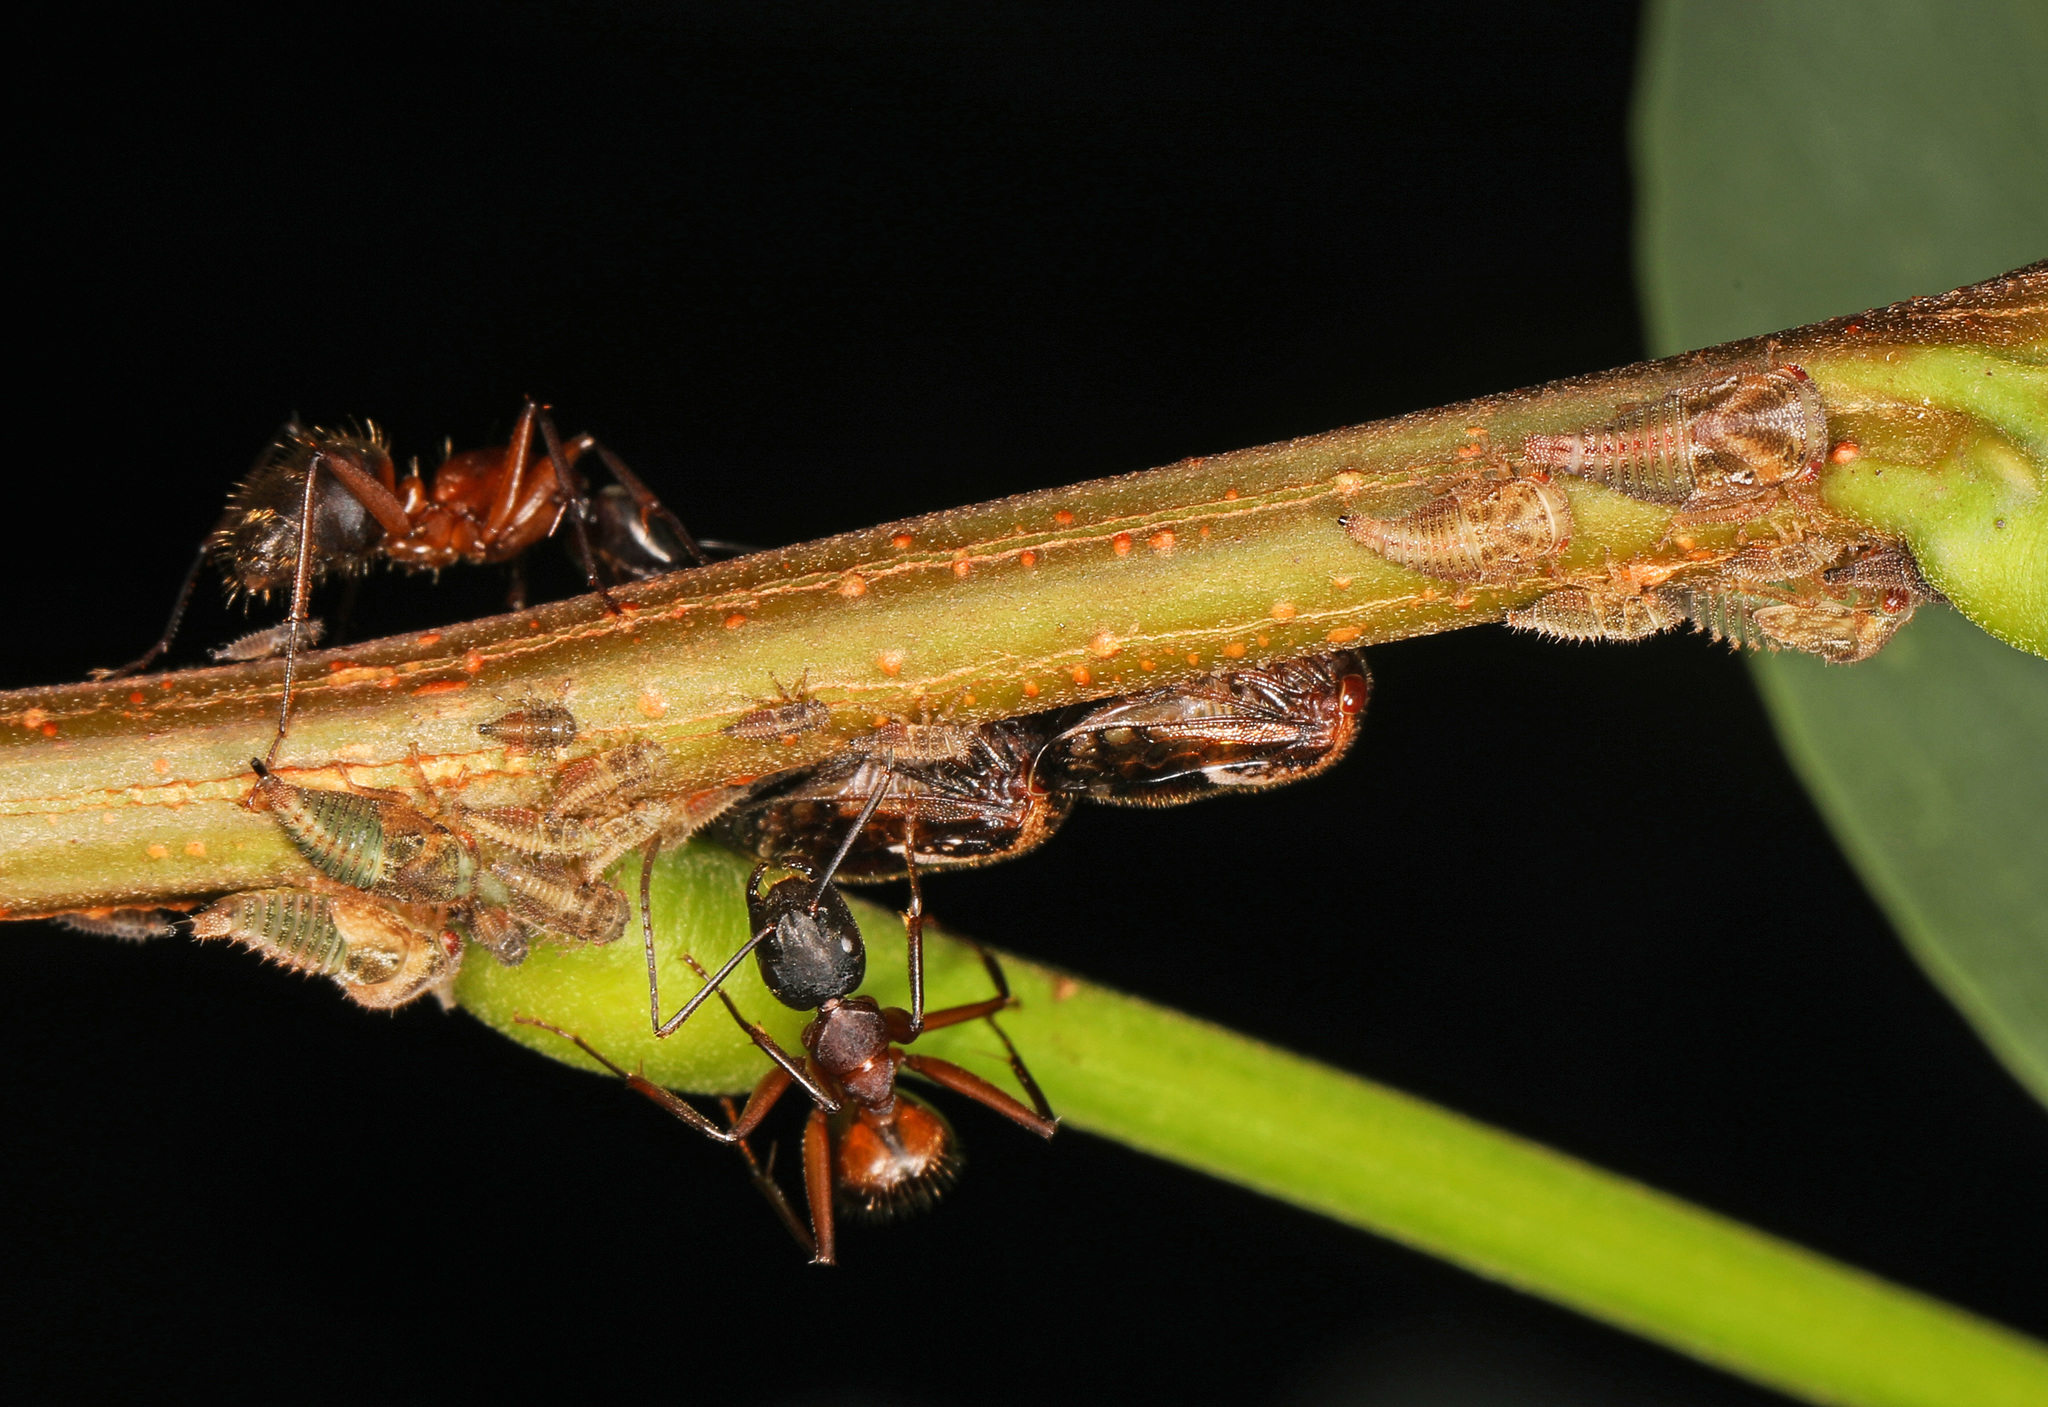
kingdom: Animalia
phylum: Arthropoda
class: Insecta
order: Hemiptera
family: Membracidae
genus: Vanduzea
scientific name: Vanduzea arquata
